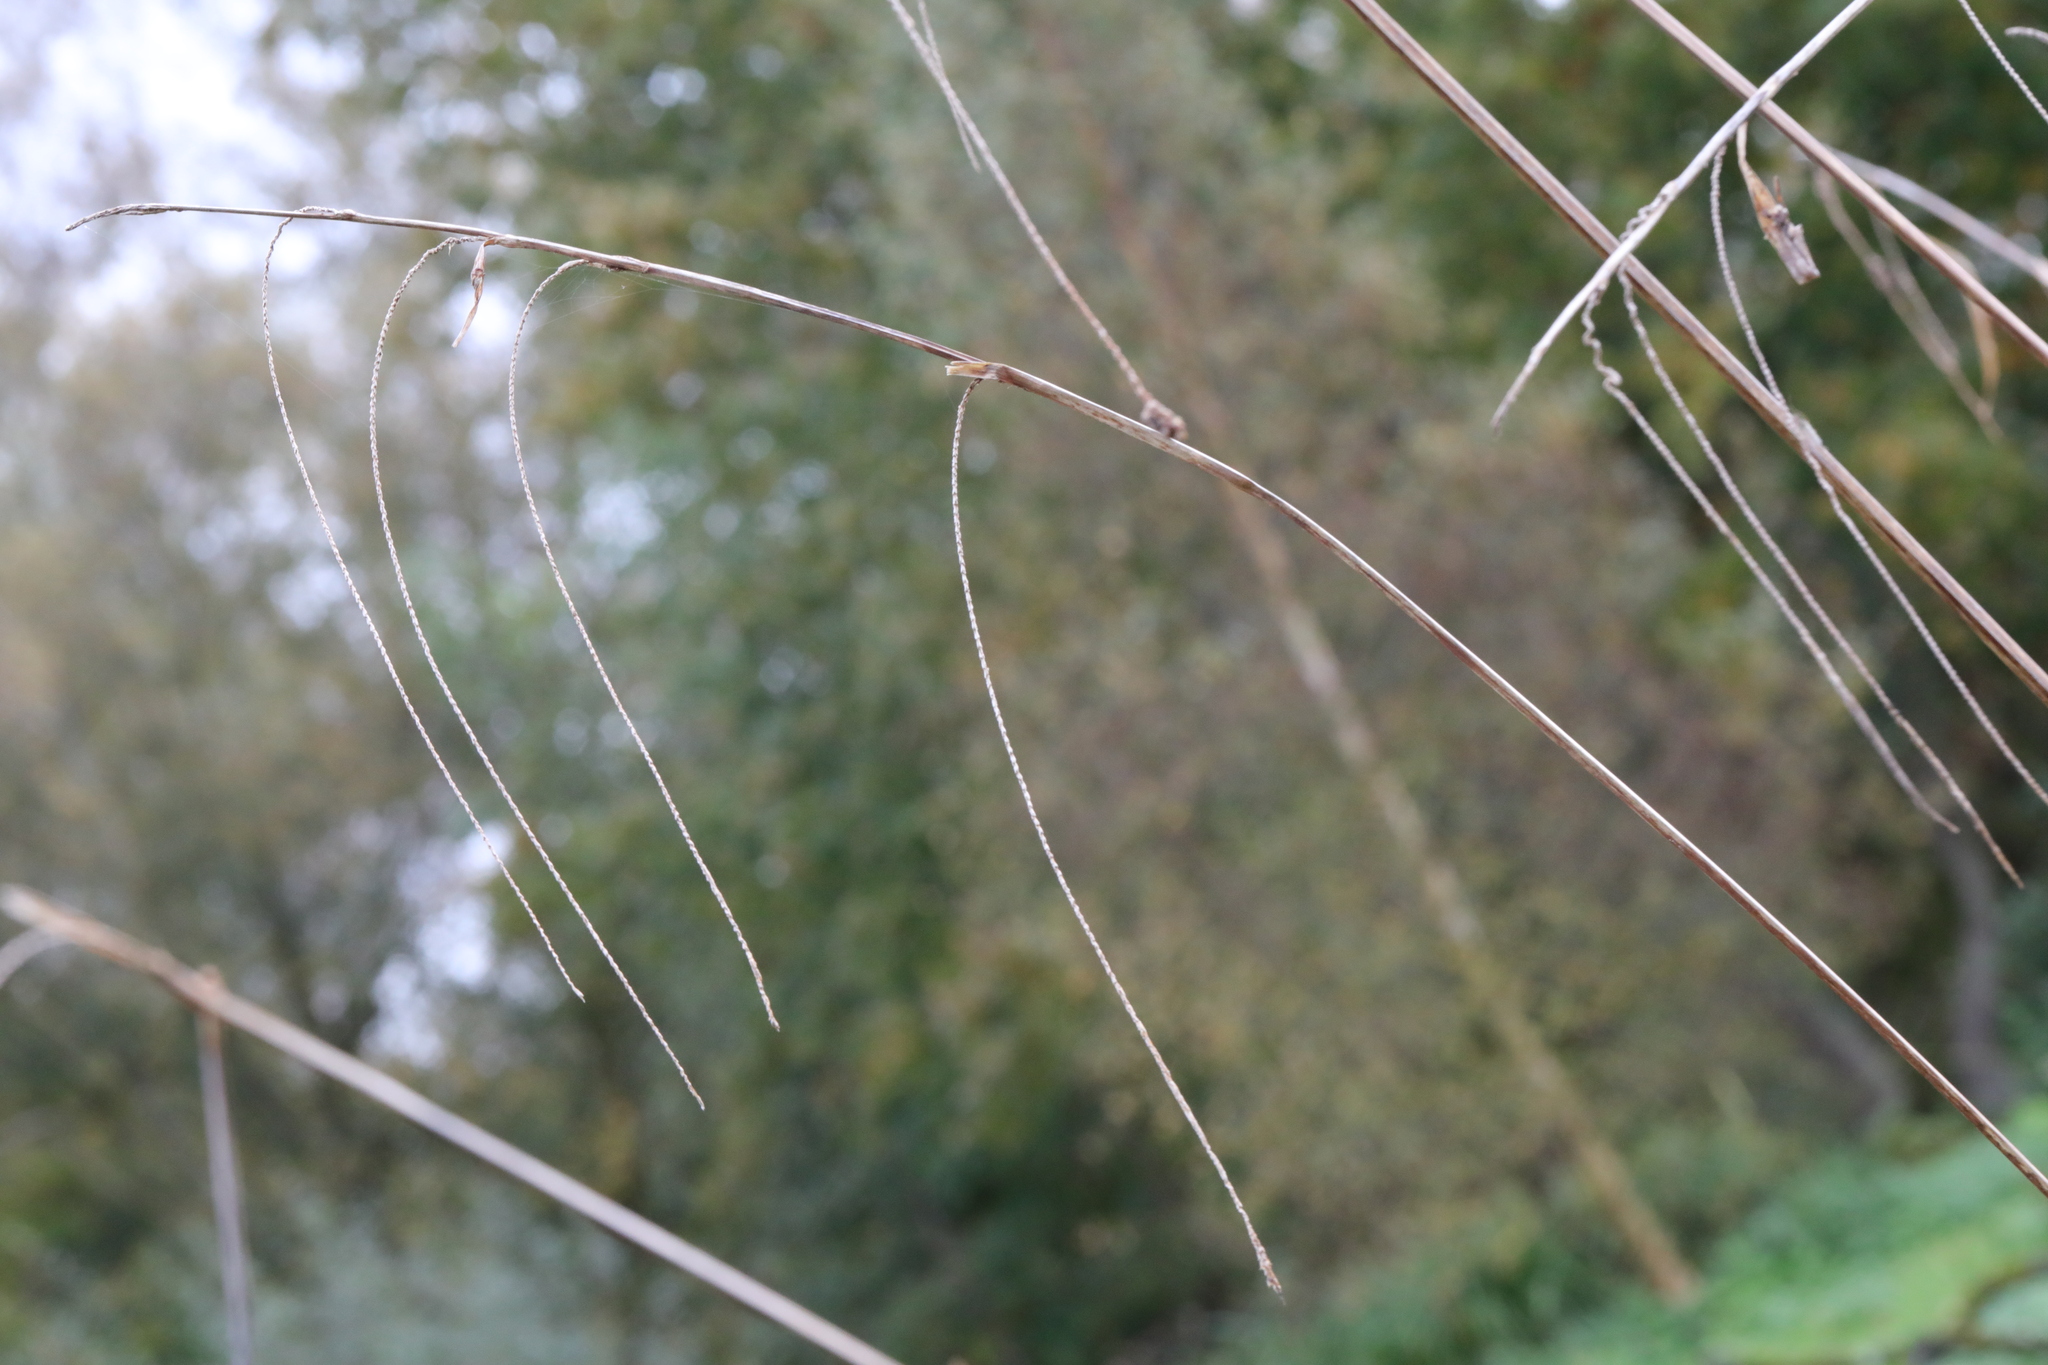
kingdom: Plantae
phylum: Tracheophyta
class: Liliopsida
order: Poales
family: Cyperaceae
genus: Carex
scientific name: Carex pendula
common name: Pendulous sedge
